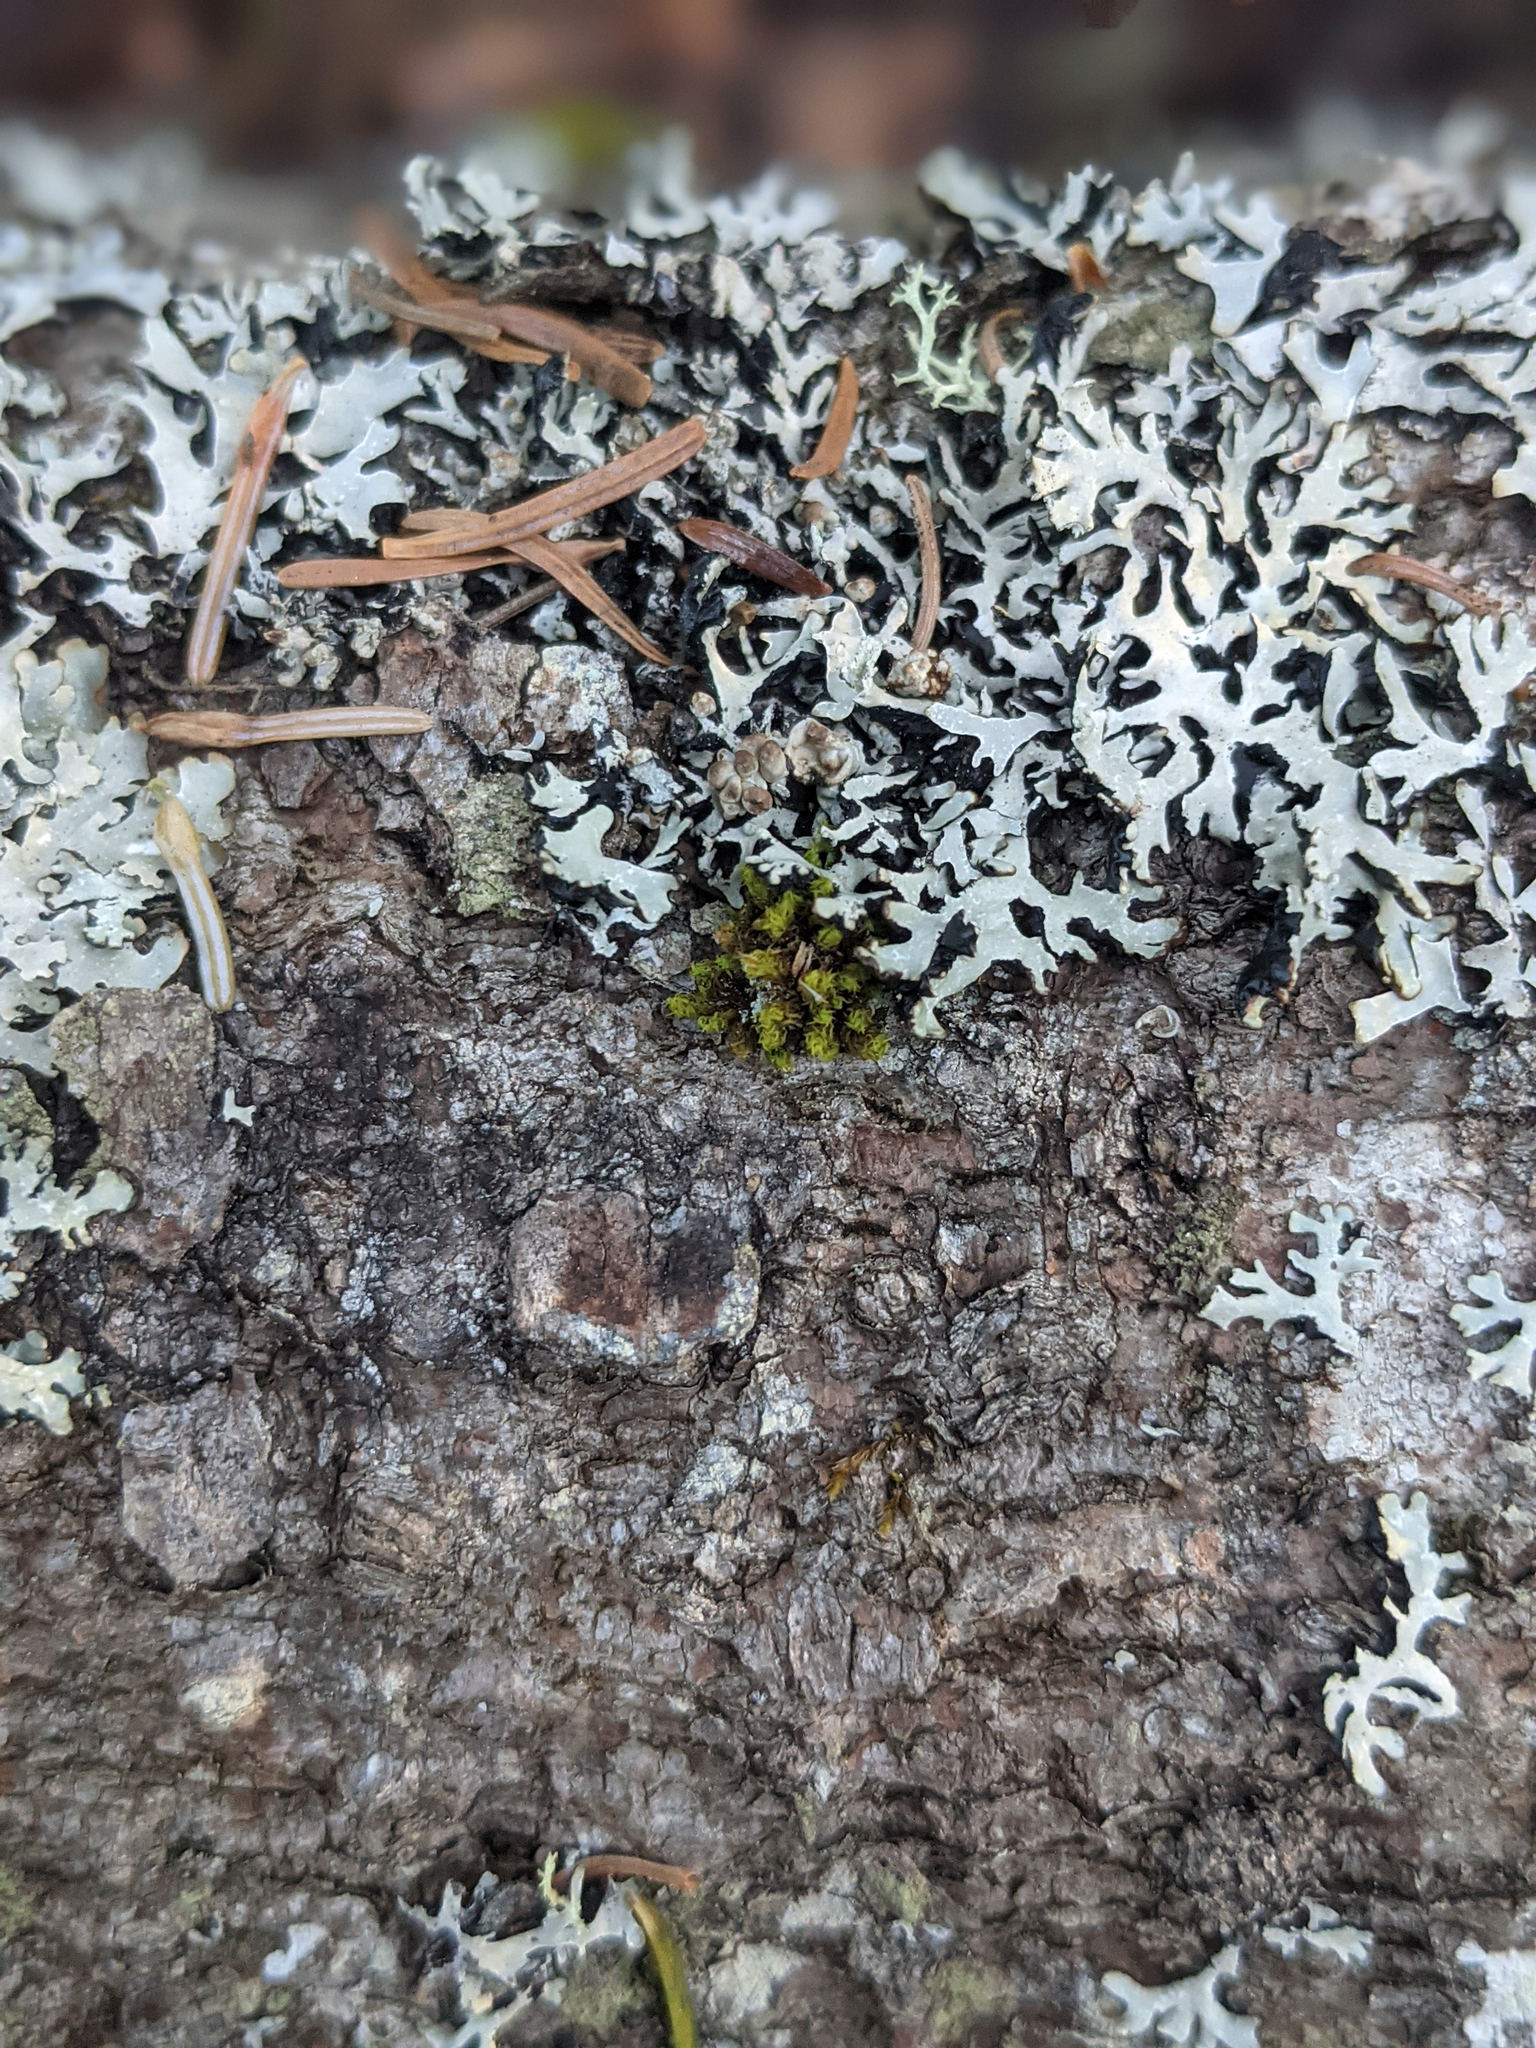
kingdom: Plantae
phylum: Bryophyta
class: Bryopsida
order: Orthotrichales
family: Orthotrichaceae
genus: Ulota
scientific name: Ulota crispa
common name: Crisped pincushion moss
